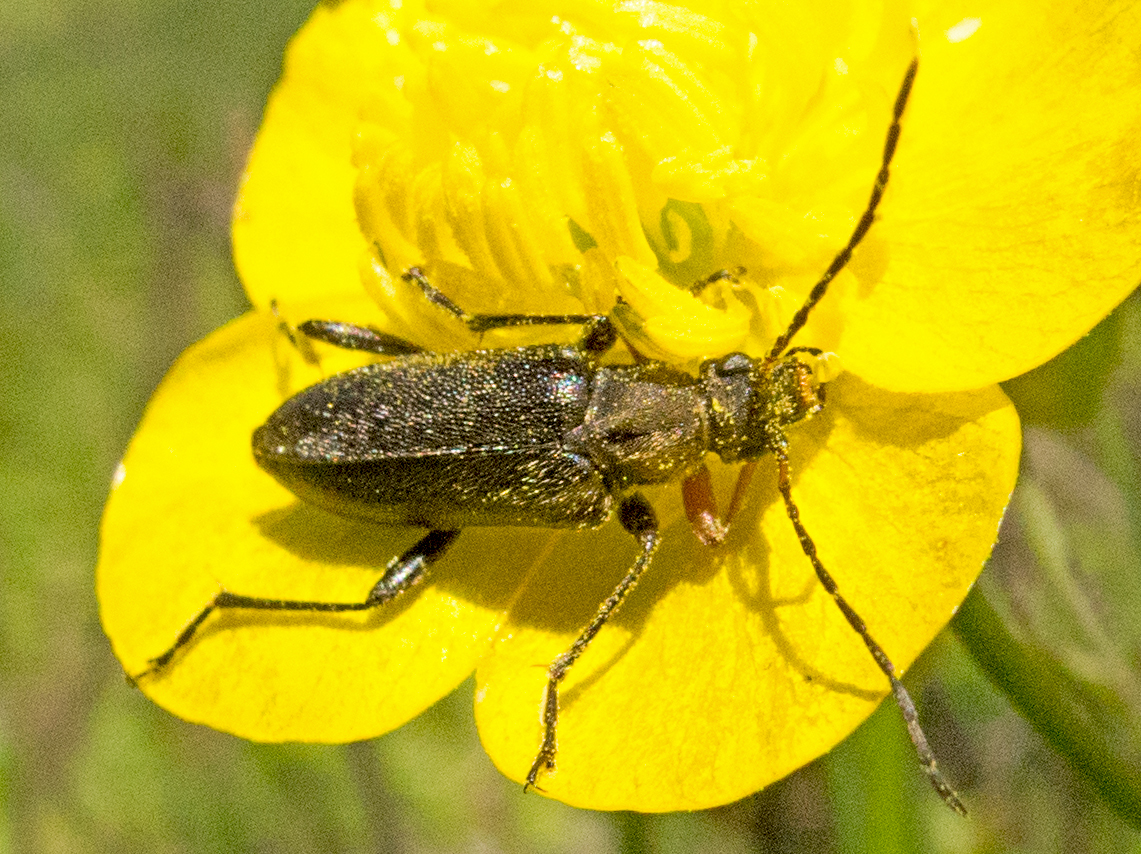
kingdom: Animalia
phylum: Arthropoda
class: Insecta
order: Coleoptera
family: Cerambycidae
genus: Cortodera
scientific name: Cortodera flavimana
